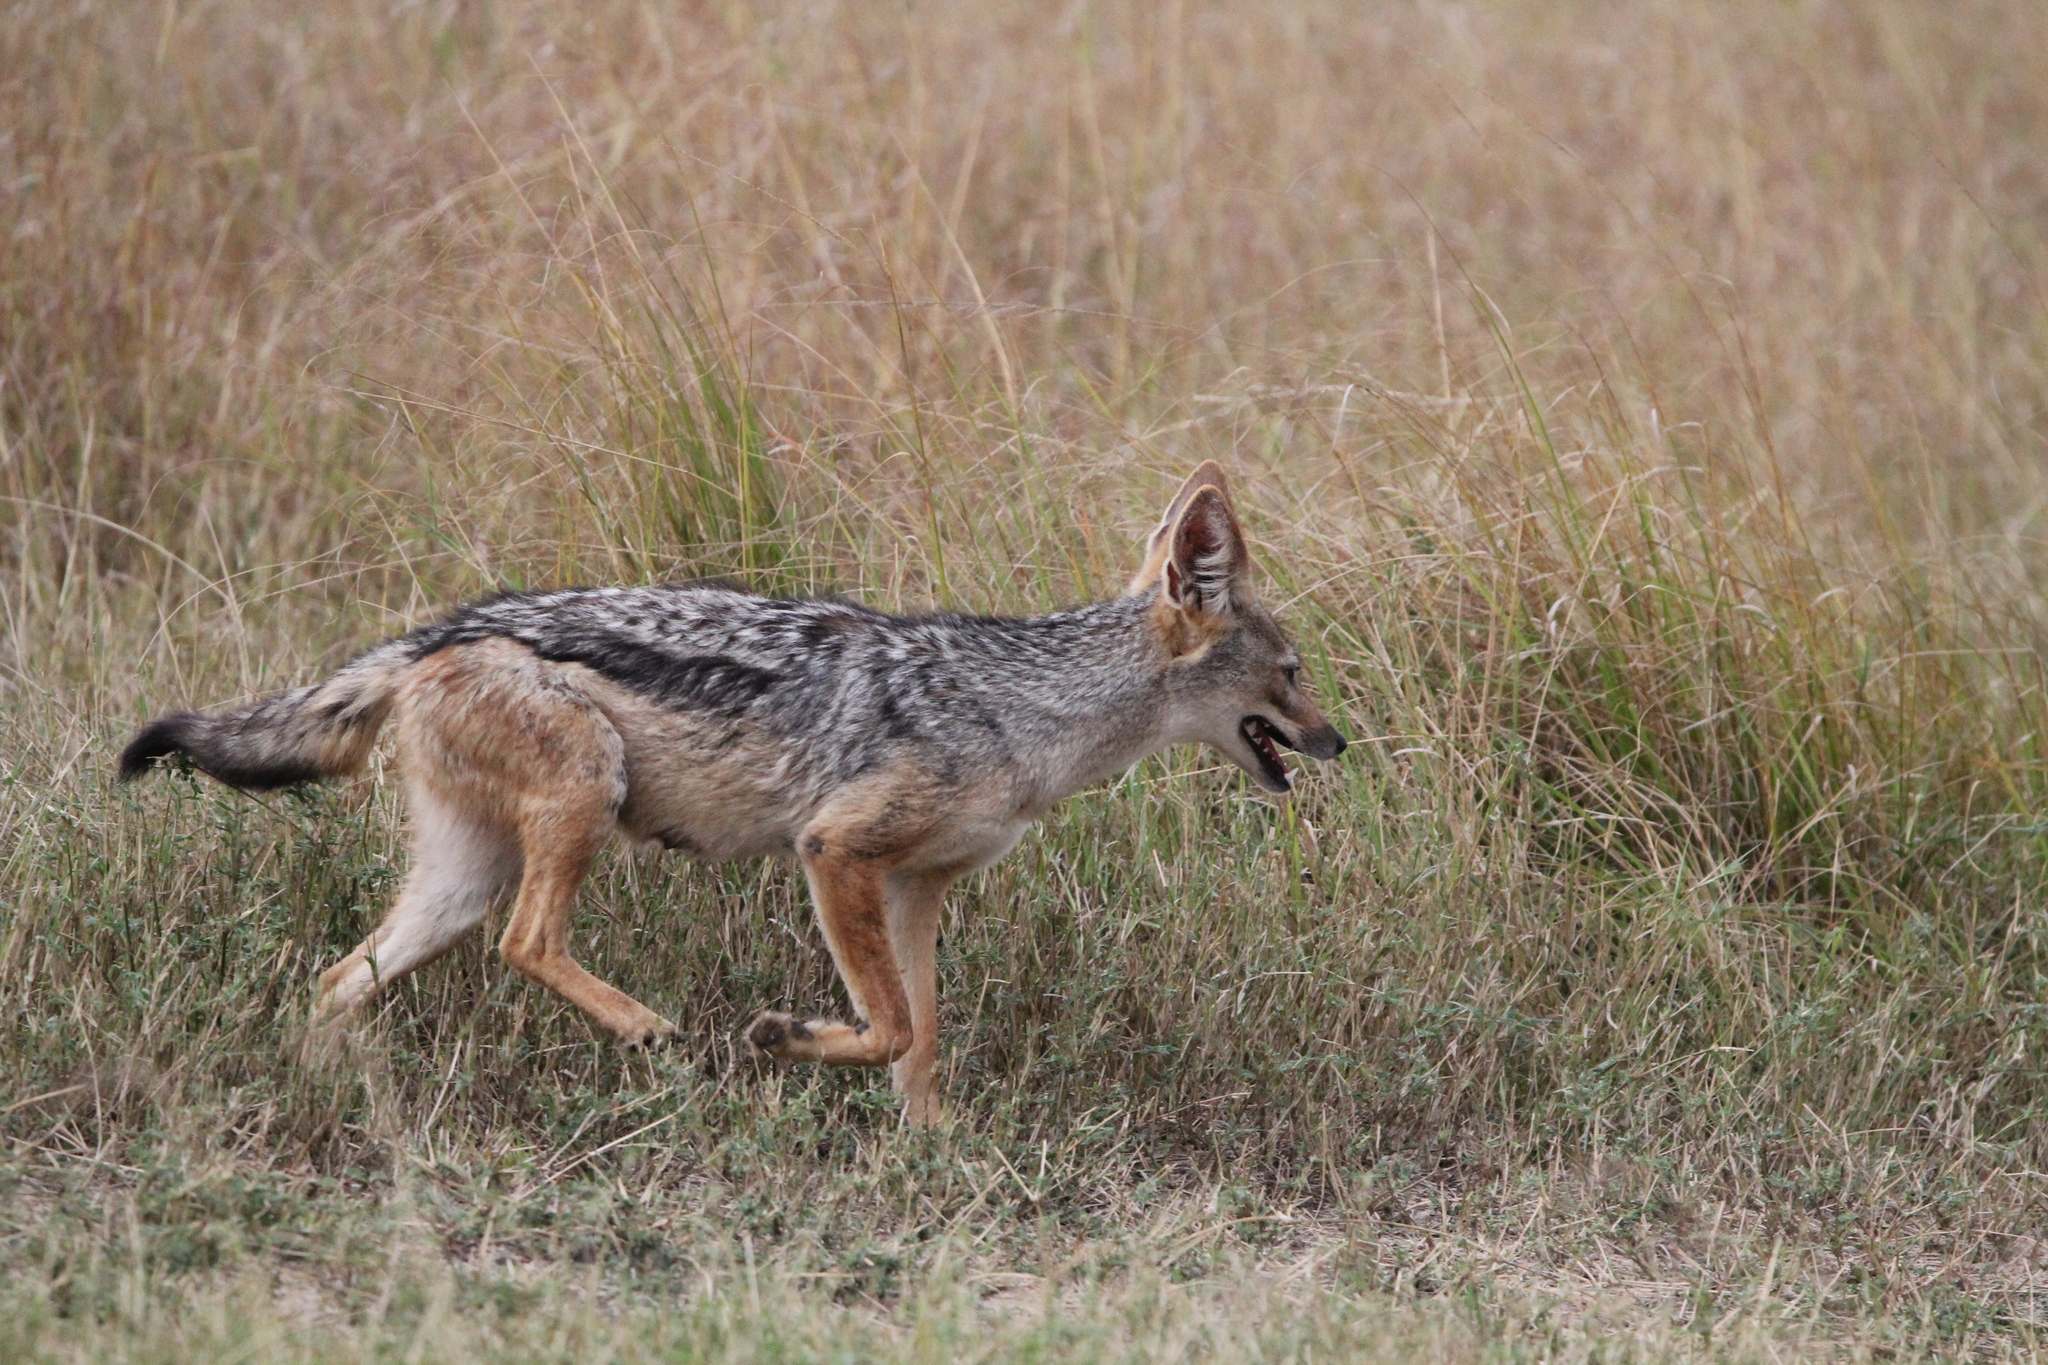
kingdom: Animalia
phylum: Chordata
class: Mammalia
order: Carnivora
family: Canidae
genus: Lupulella
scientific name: Lupulella
